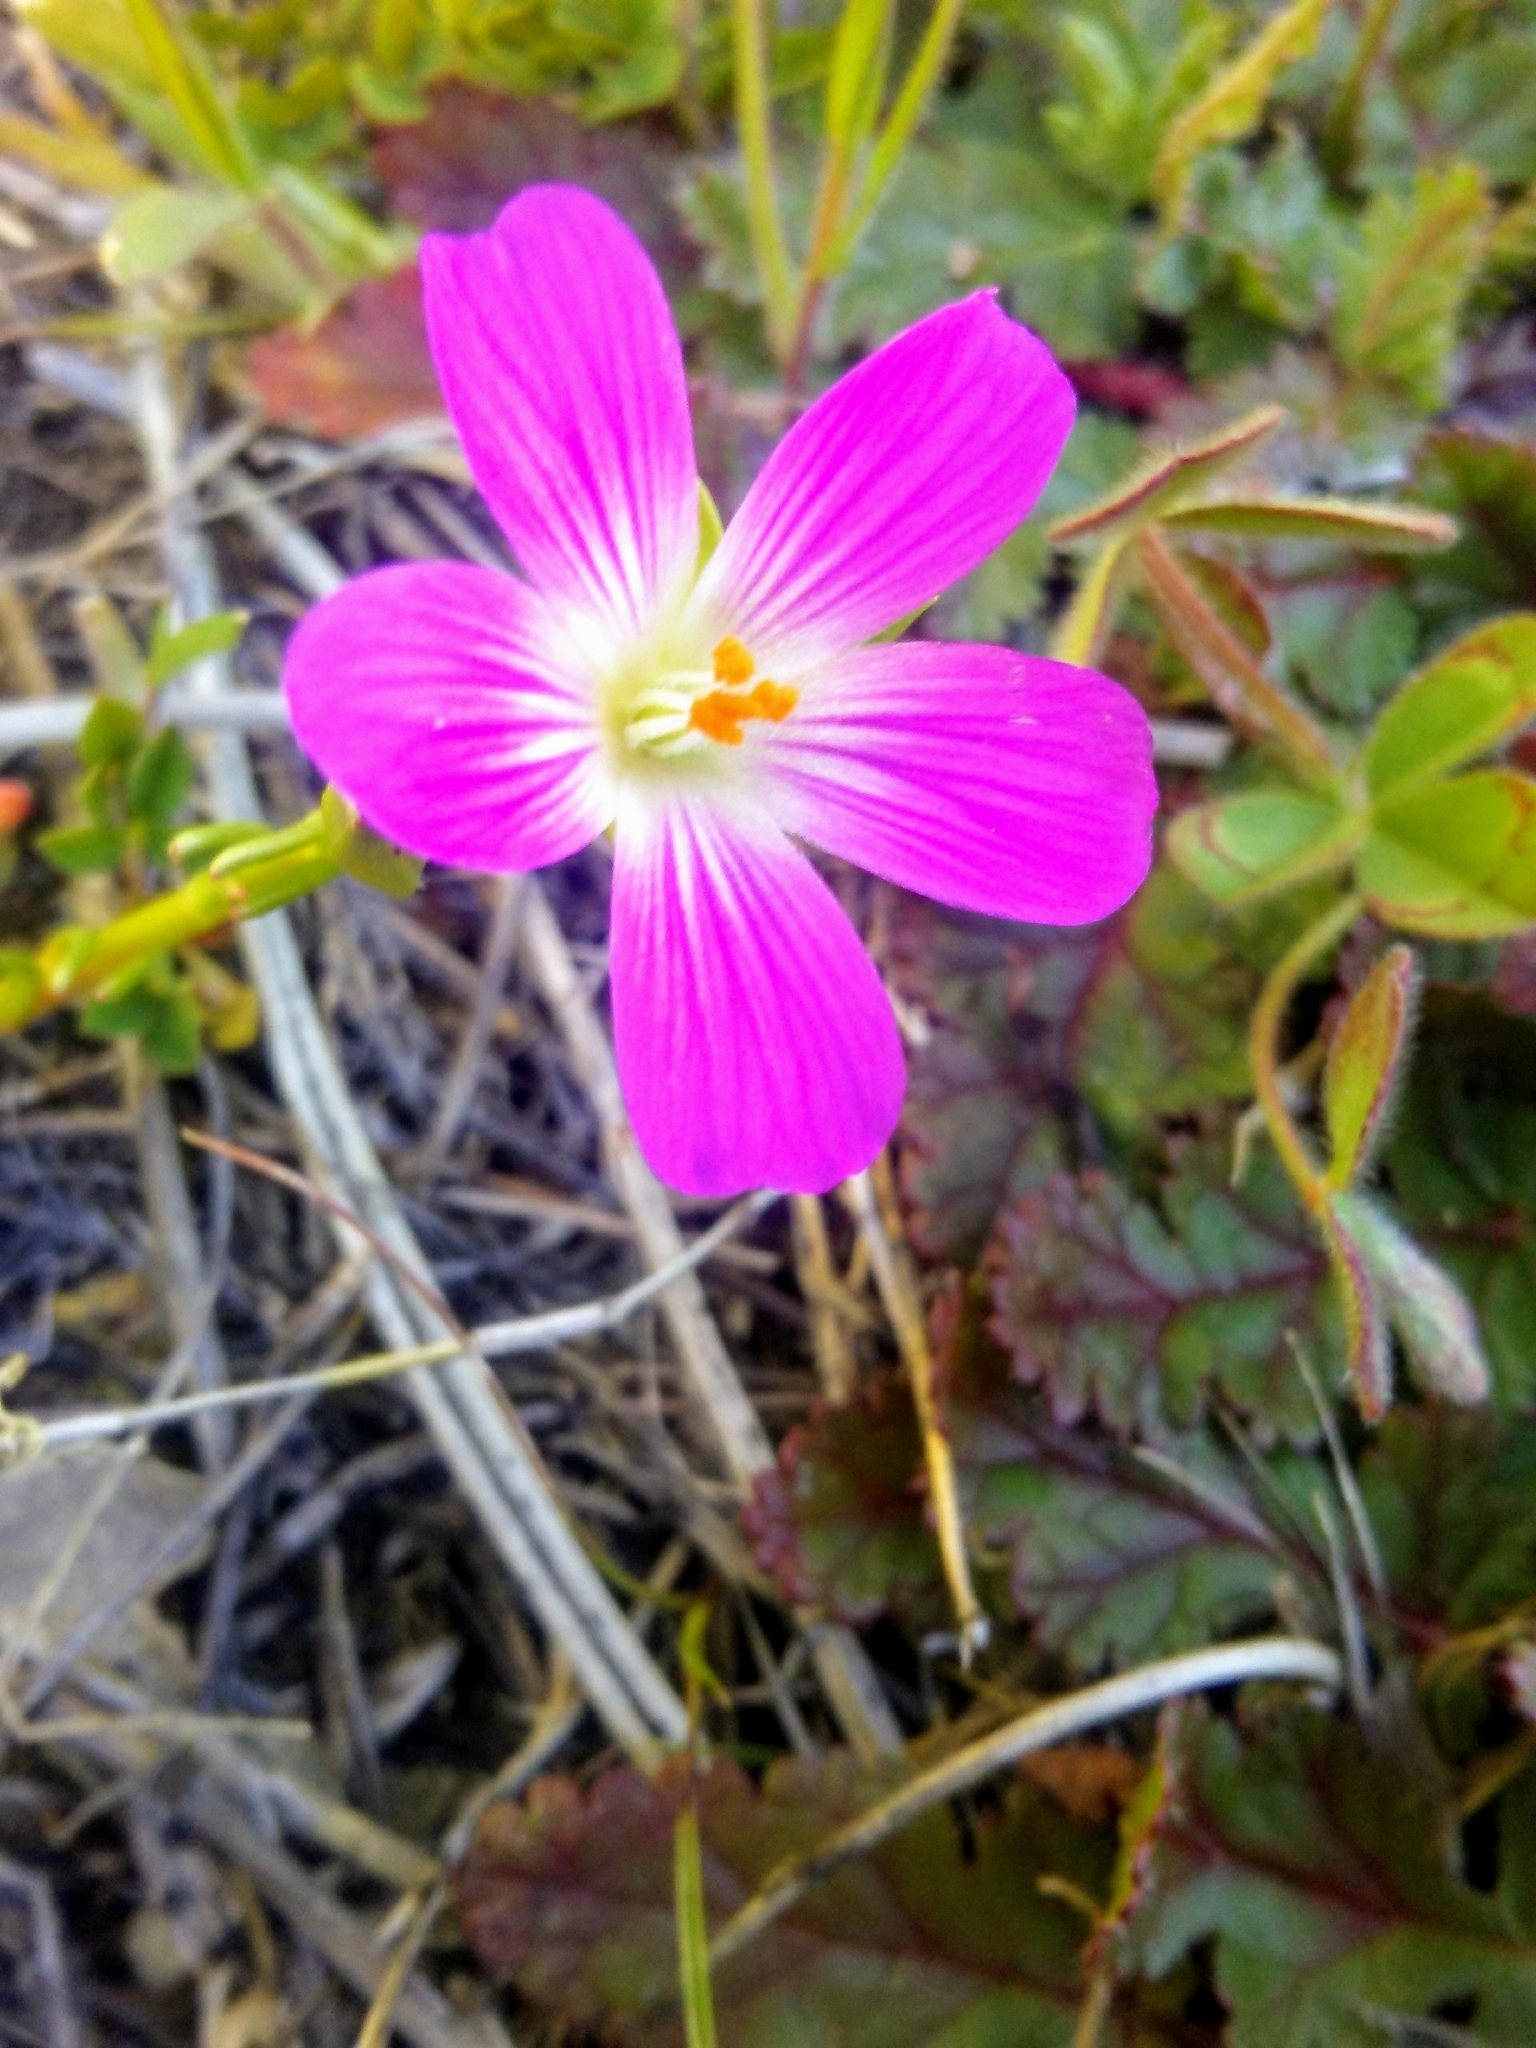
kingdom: Plantae
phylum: Tracheophyta
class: Magnoliopsida
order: Caryophyllales
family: Montiaceae
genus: Calandrinia
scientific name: Calandrinia menziesii
